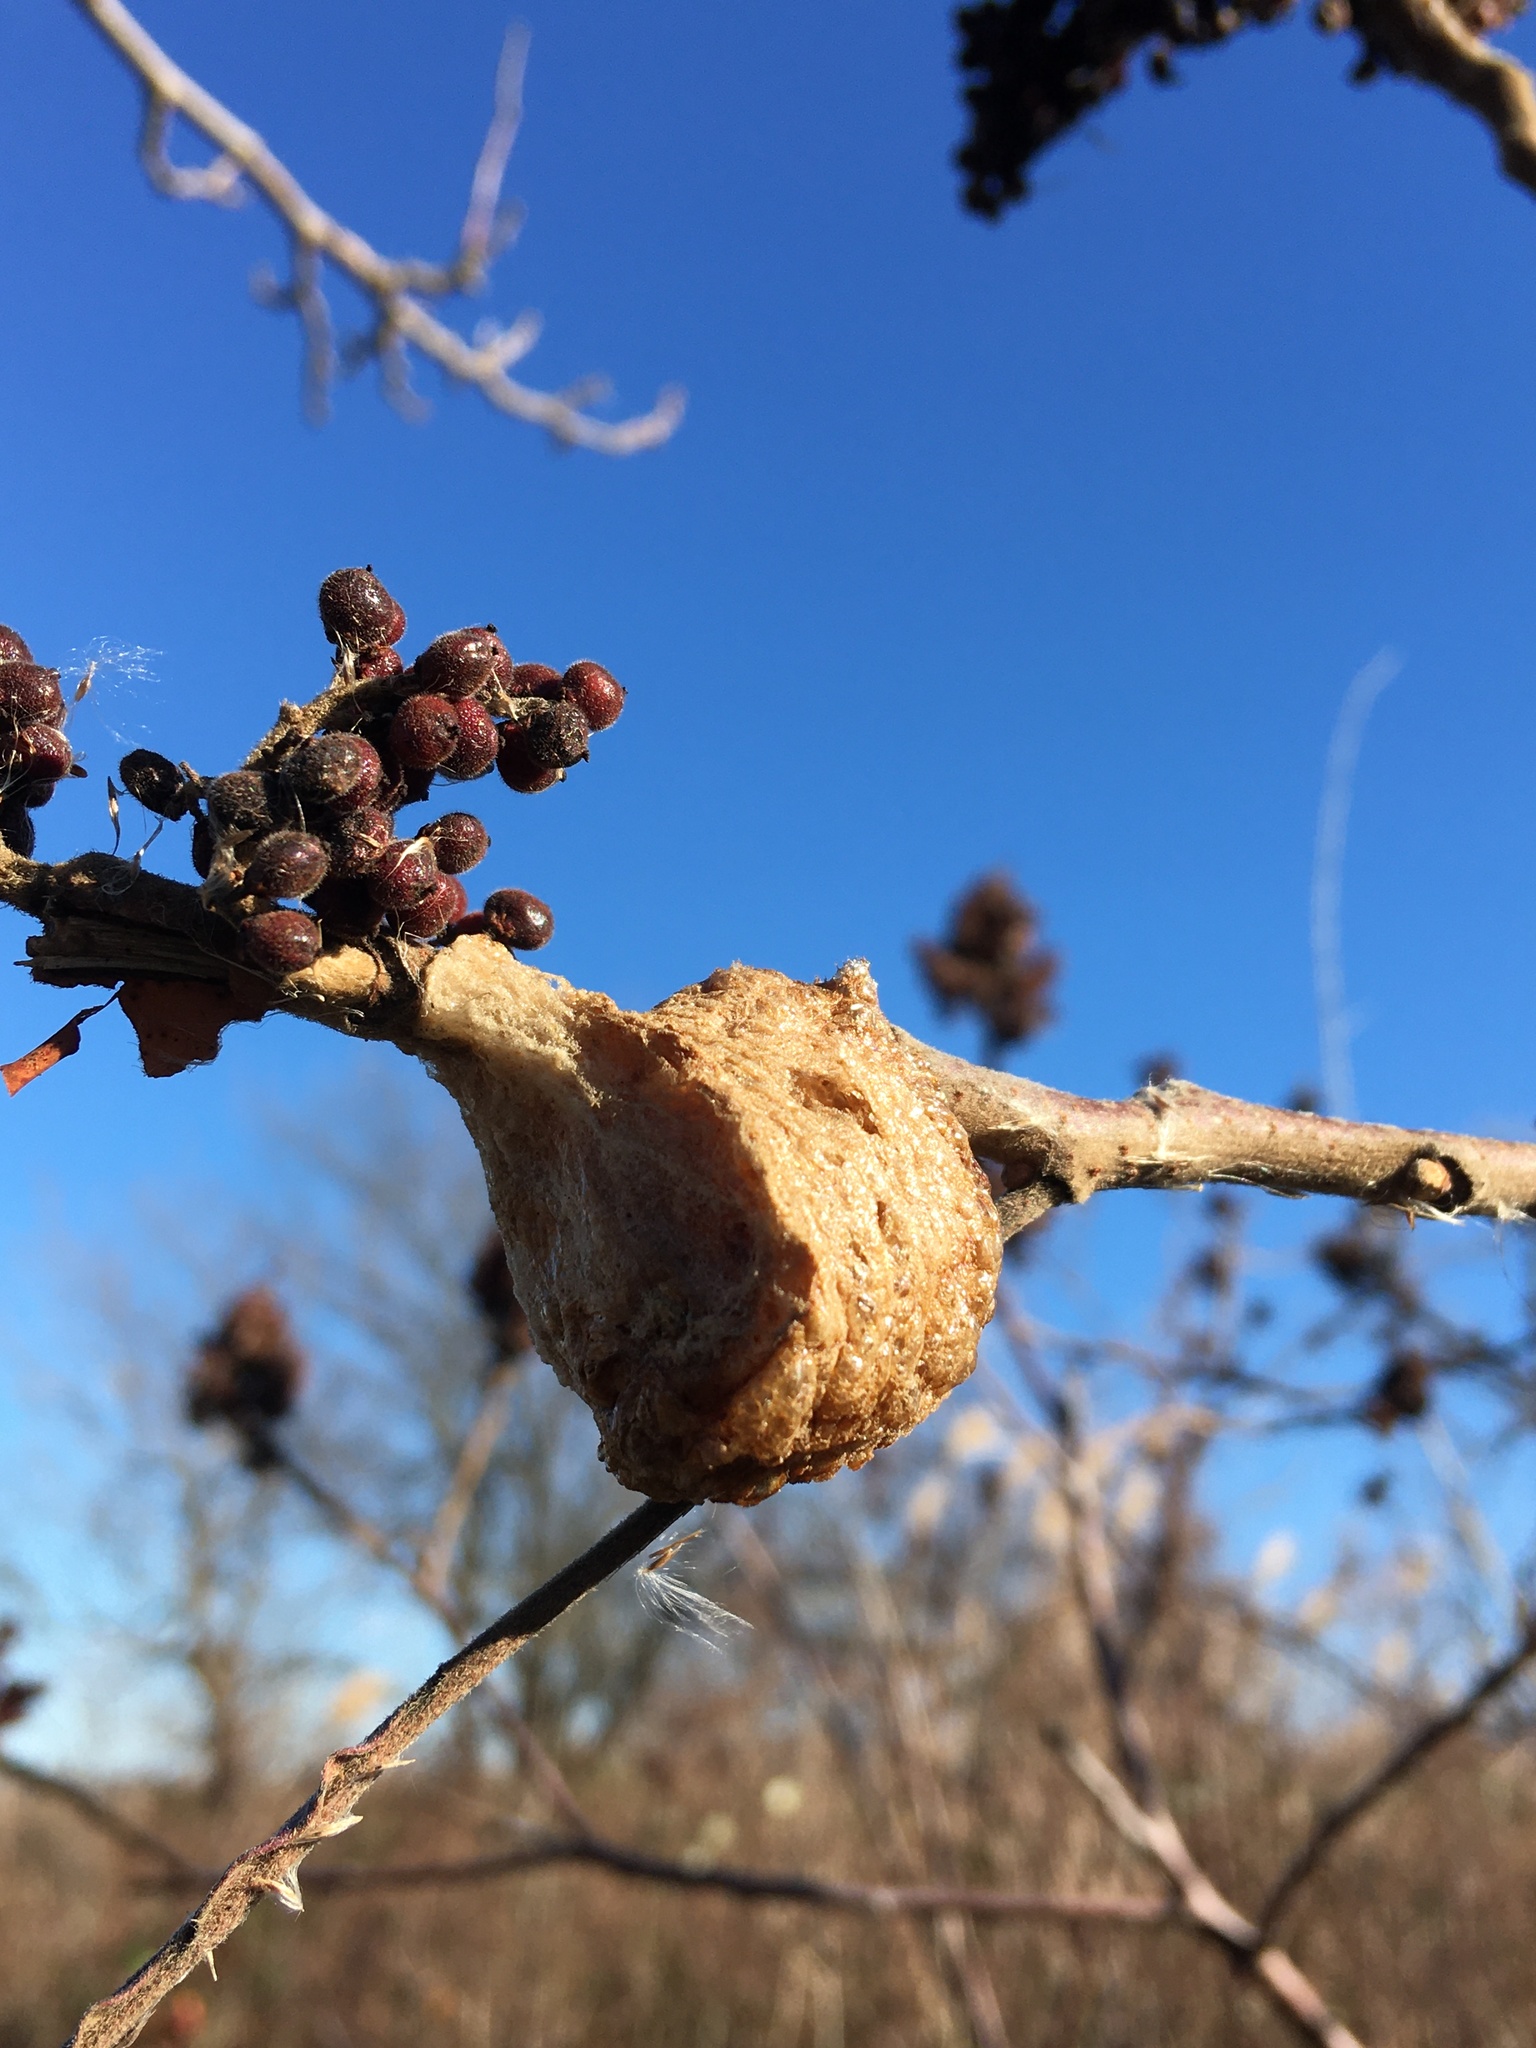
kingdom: Animalia
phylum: Arthropoda
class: Insecta
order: Mantodea
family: Mantidae
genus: Tenodera
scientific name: Tenodera sinensis
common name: Chinese mantis
